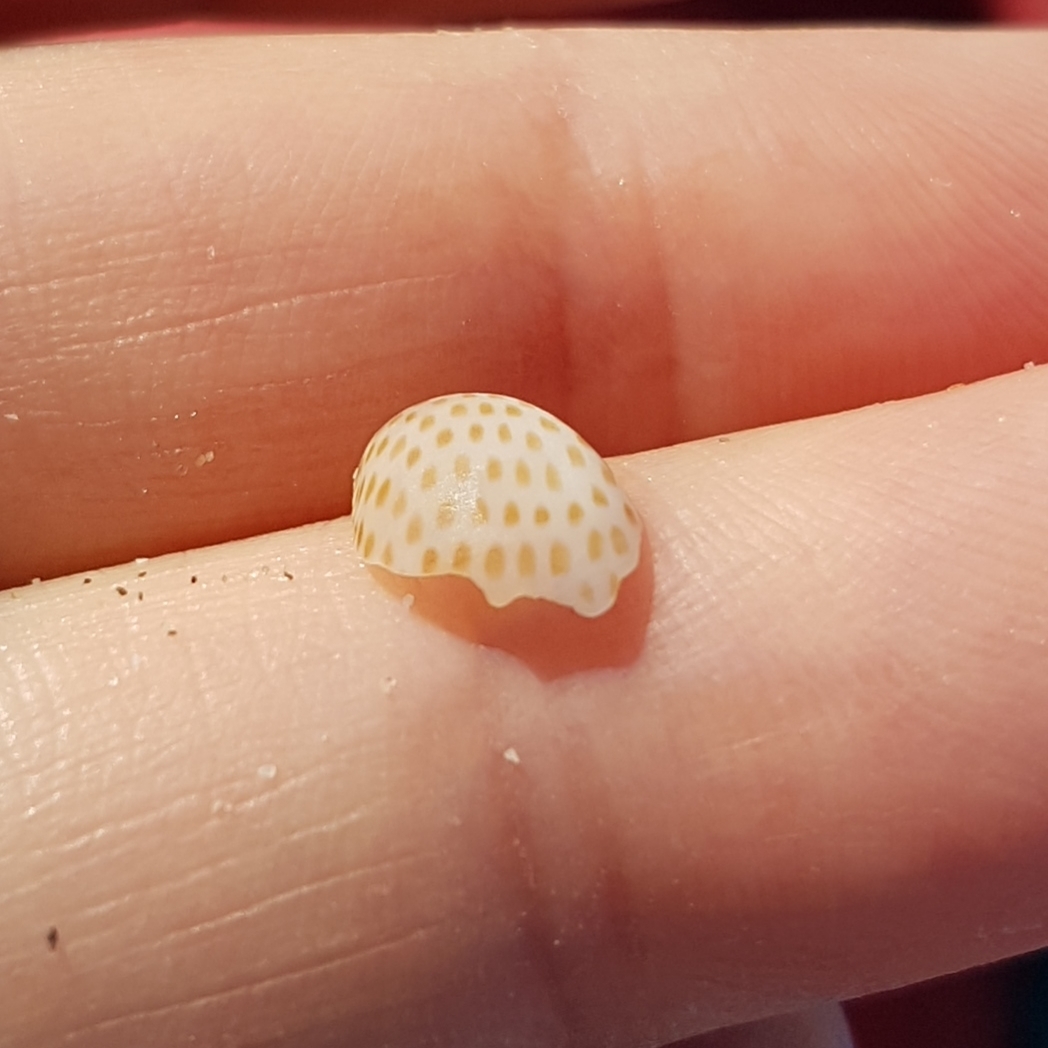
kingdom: Animalia
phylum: Mollusca
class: Gastropoda
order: Littorinimorpha
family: Naticidae
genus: Naticarius
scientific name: Naticarius stercusmuscarum
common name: Fly-speck moonsnail
